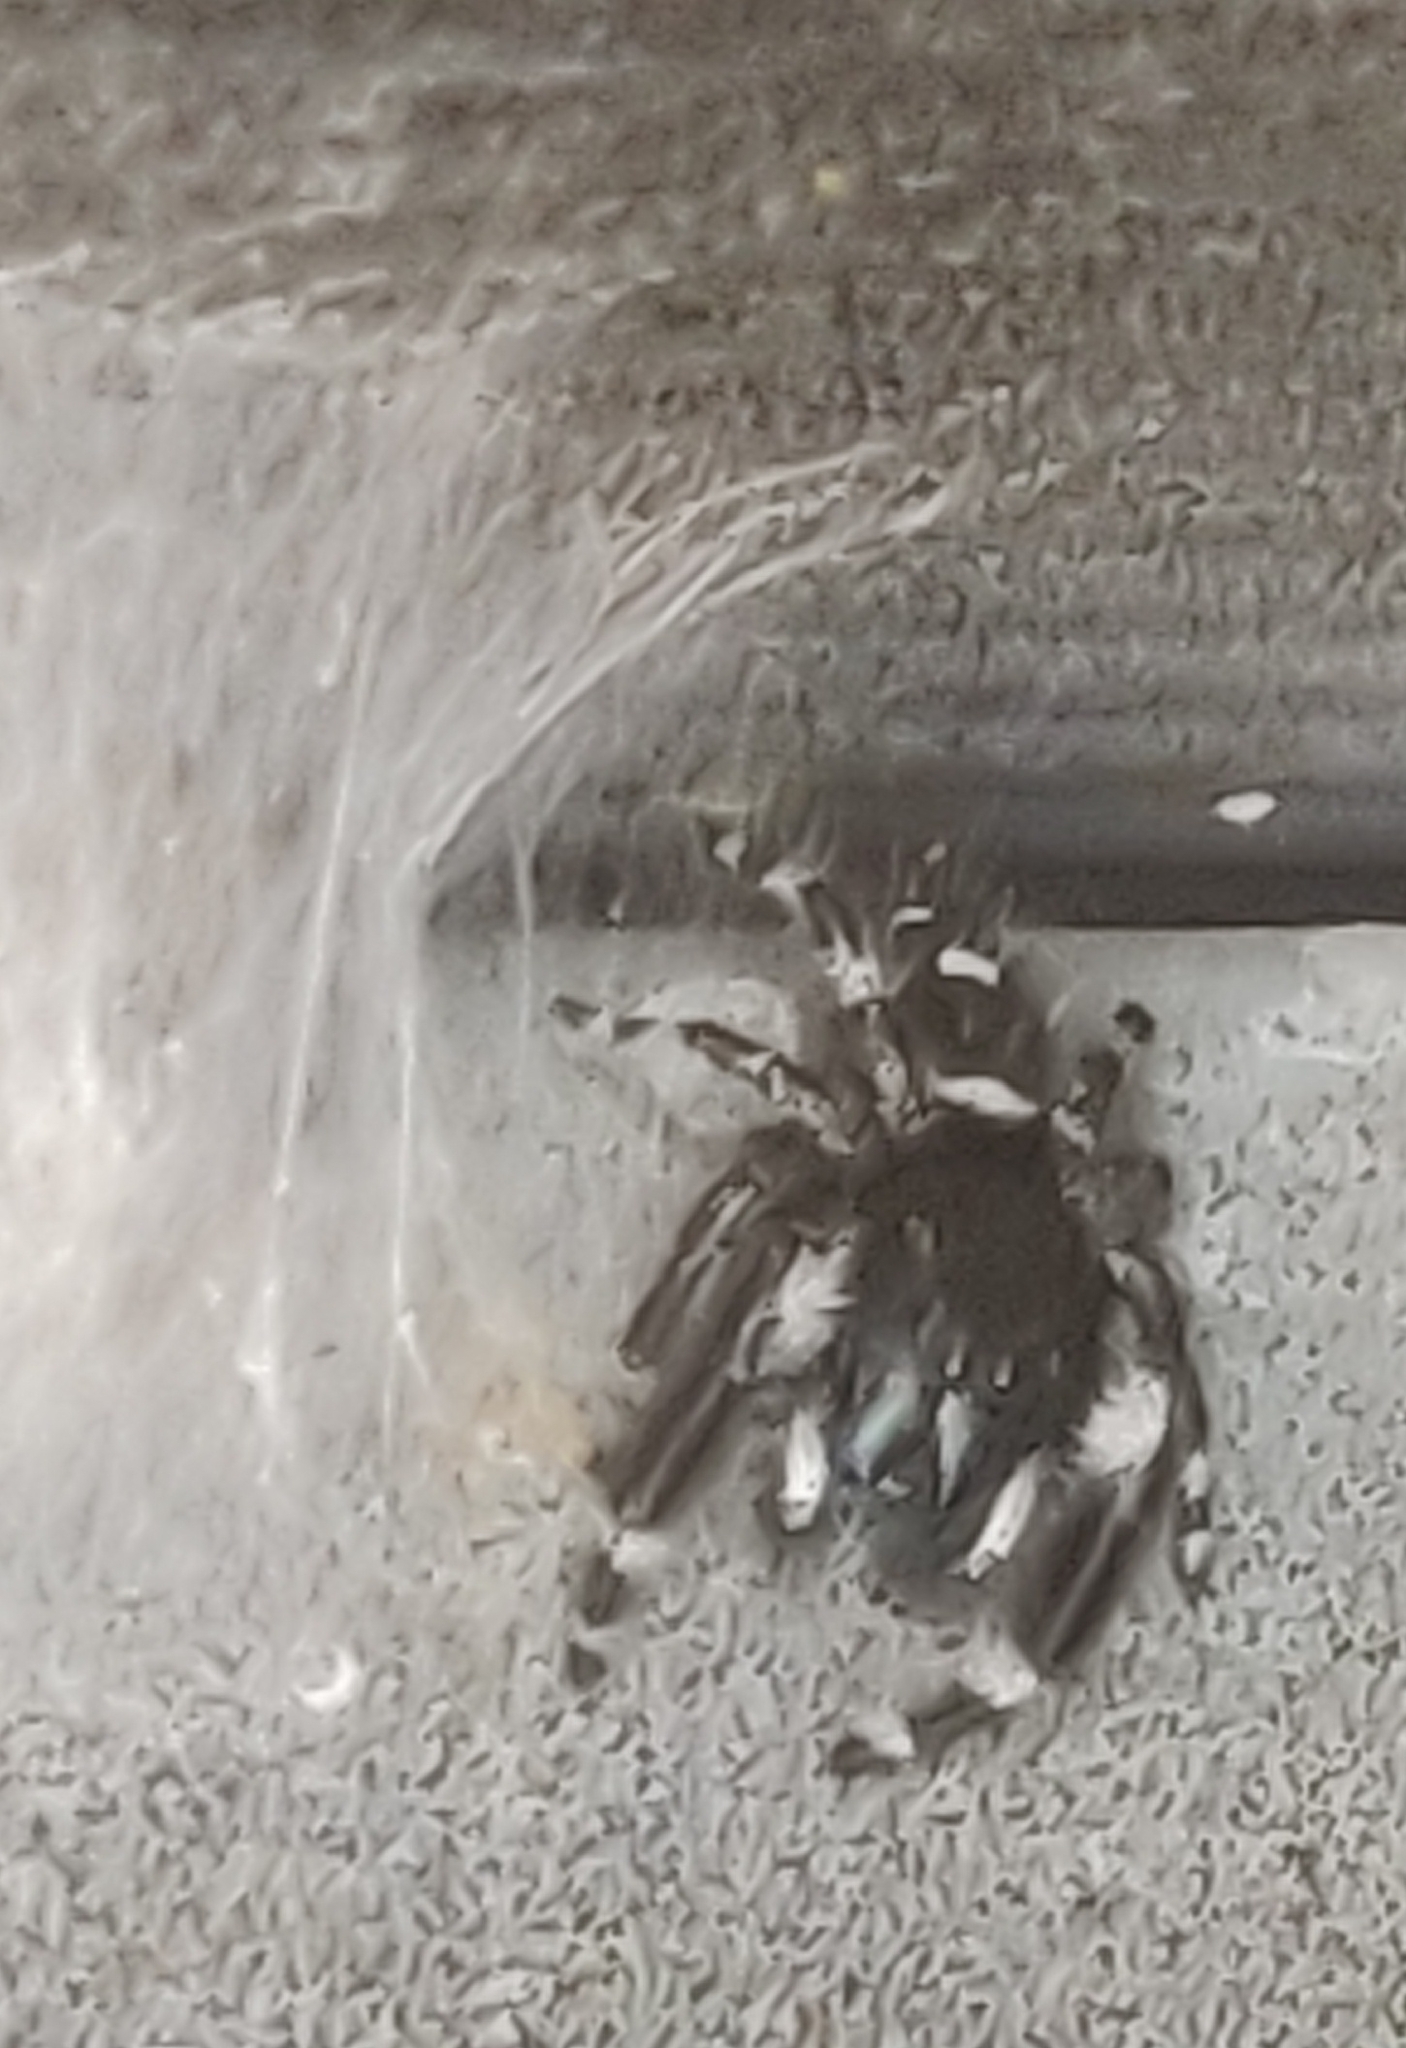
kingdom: Animalia
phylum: Arthropoda
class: Arachnida
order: Araneae
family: Salticidae
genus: Phidippus
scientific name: Phidippus audax
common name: Bold jumper
